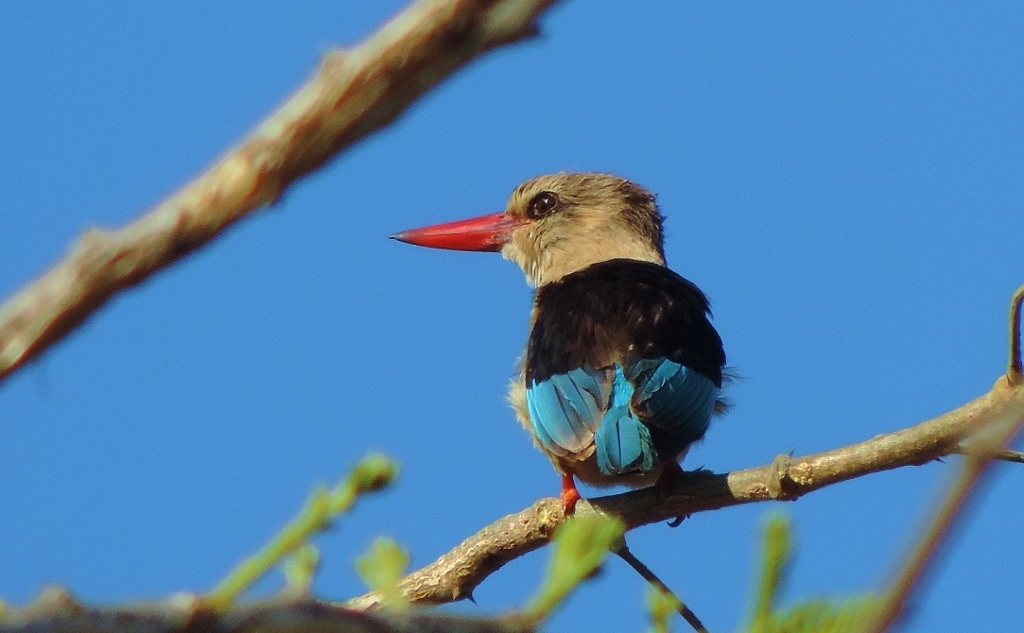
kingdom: Animalia
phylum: Chordata
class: Aves
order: Coraciiformes
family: Alcedinidae
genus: Halcyon
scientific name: Halcyon albiventris
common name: Brown-hooded kingfisher
